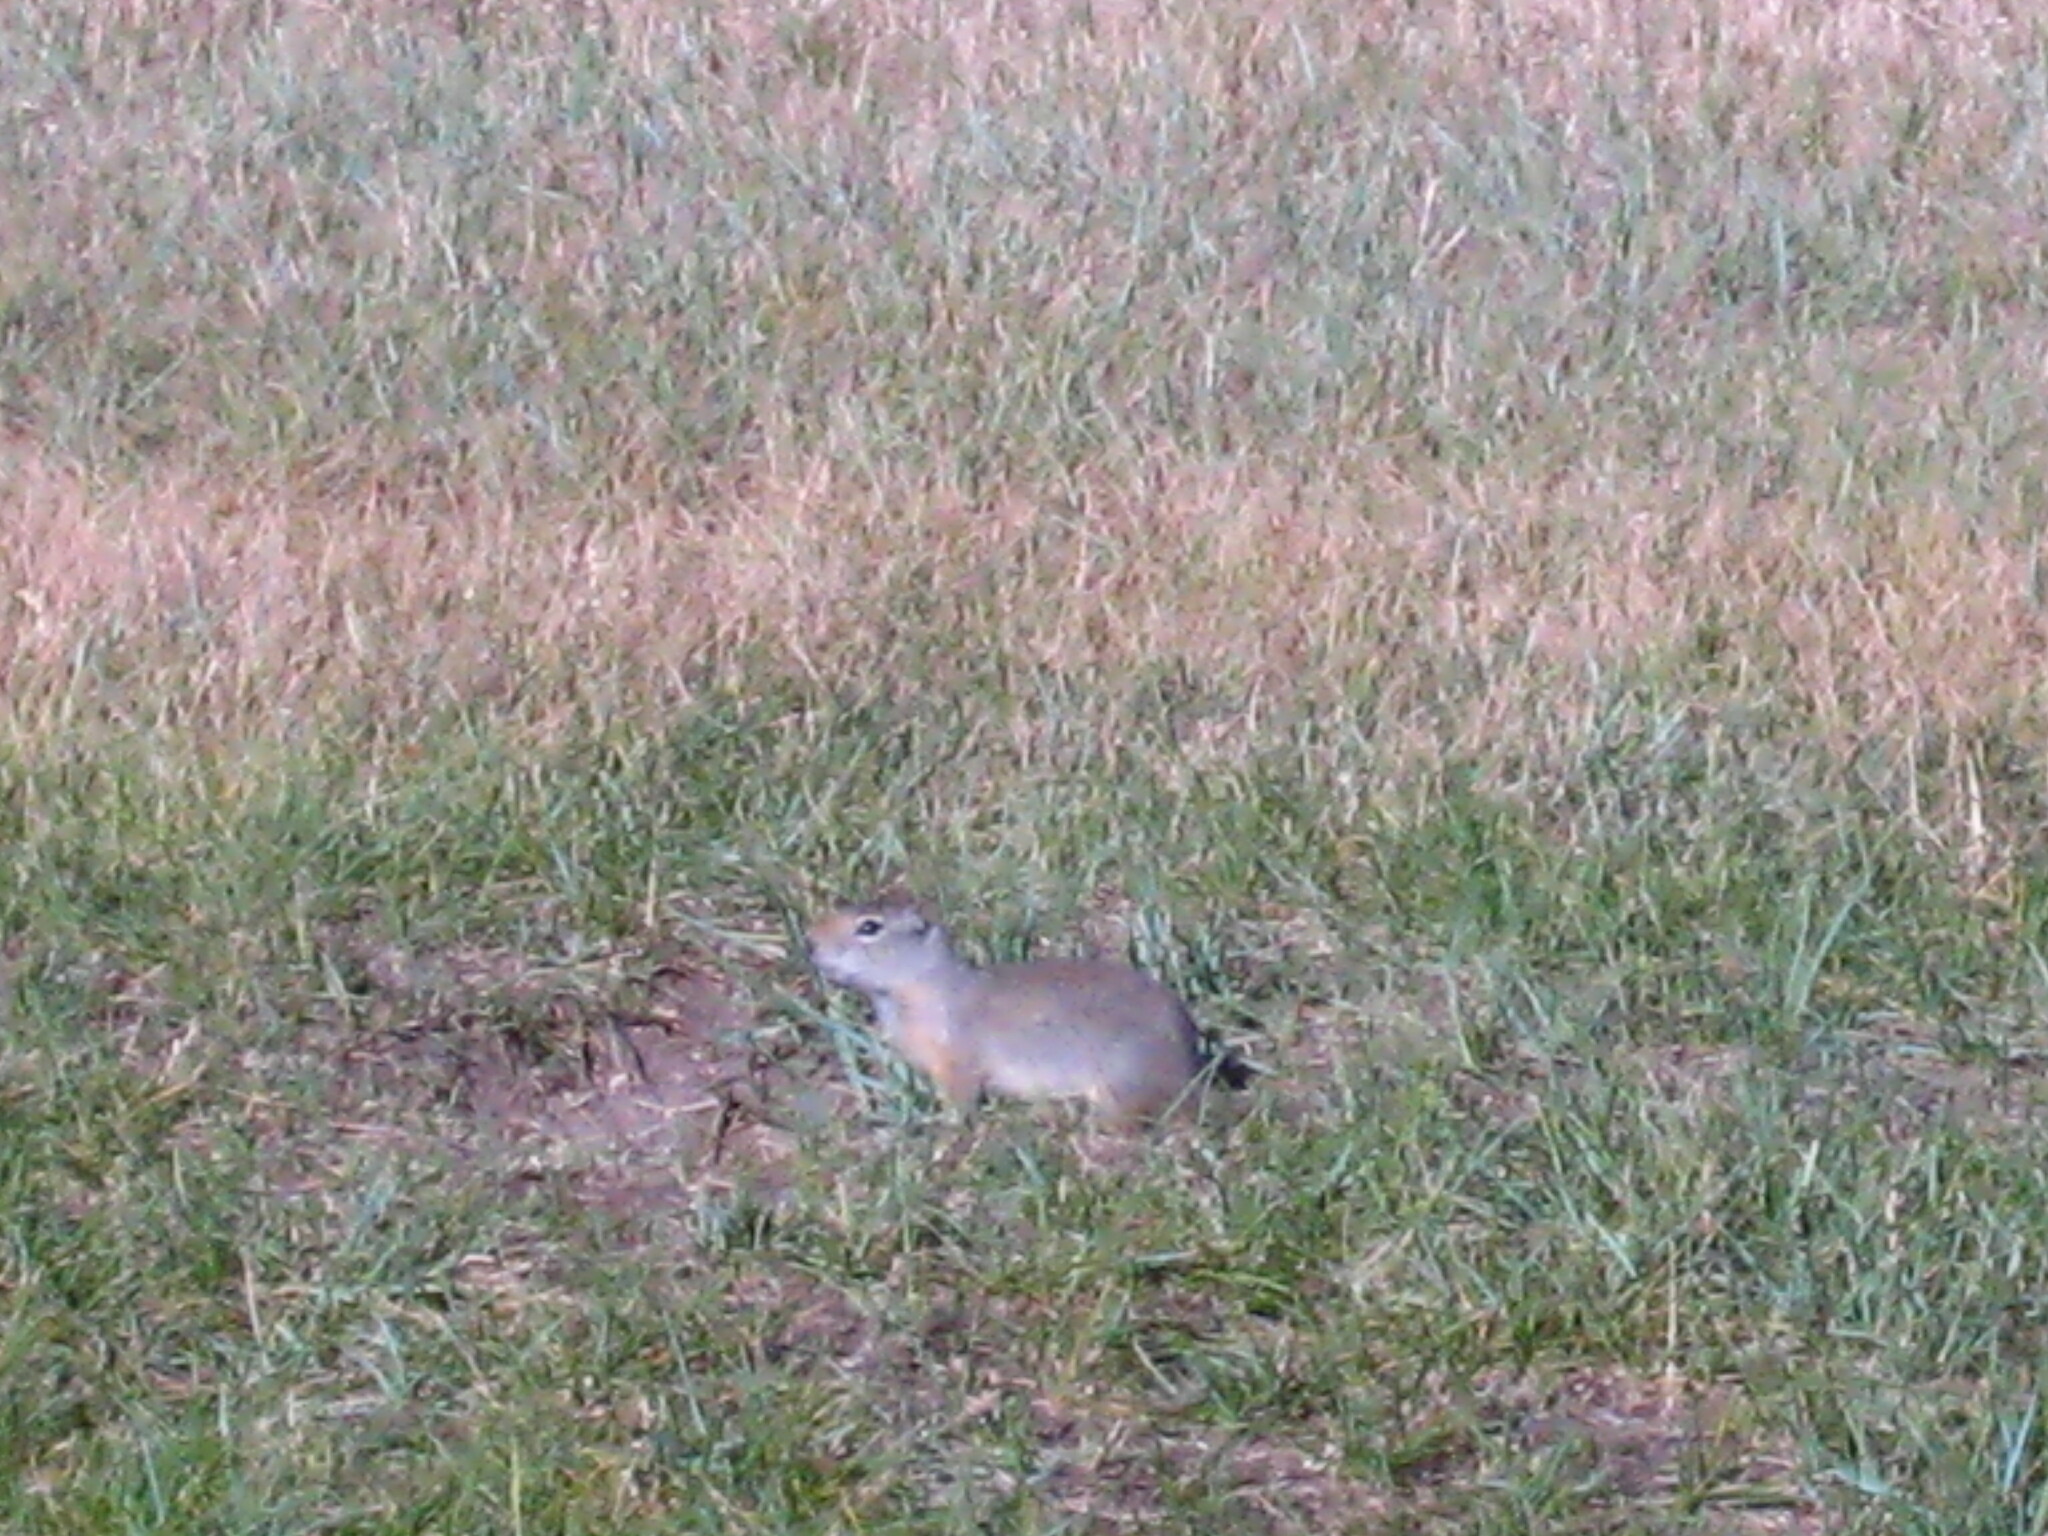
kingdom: Animalia
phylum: Chordata
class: Mammalia
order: Rodentia
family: Sciuridae
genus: Urocitellus
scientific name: Urocitellus armatus
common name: Uinta ground squirrel
